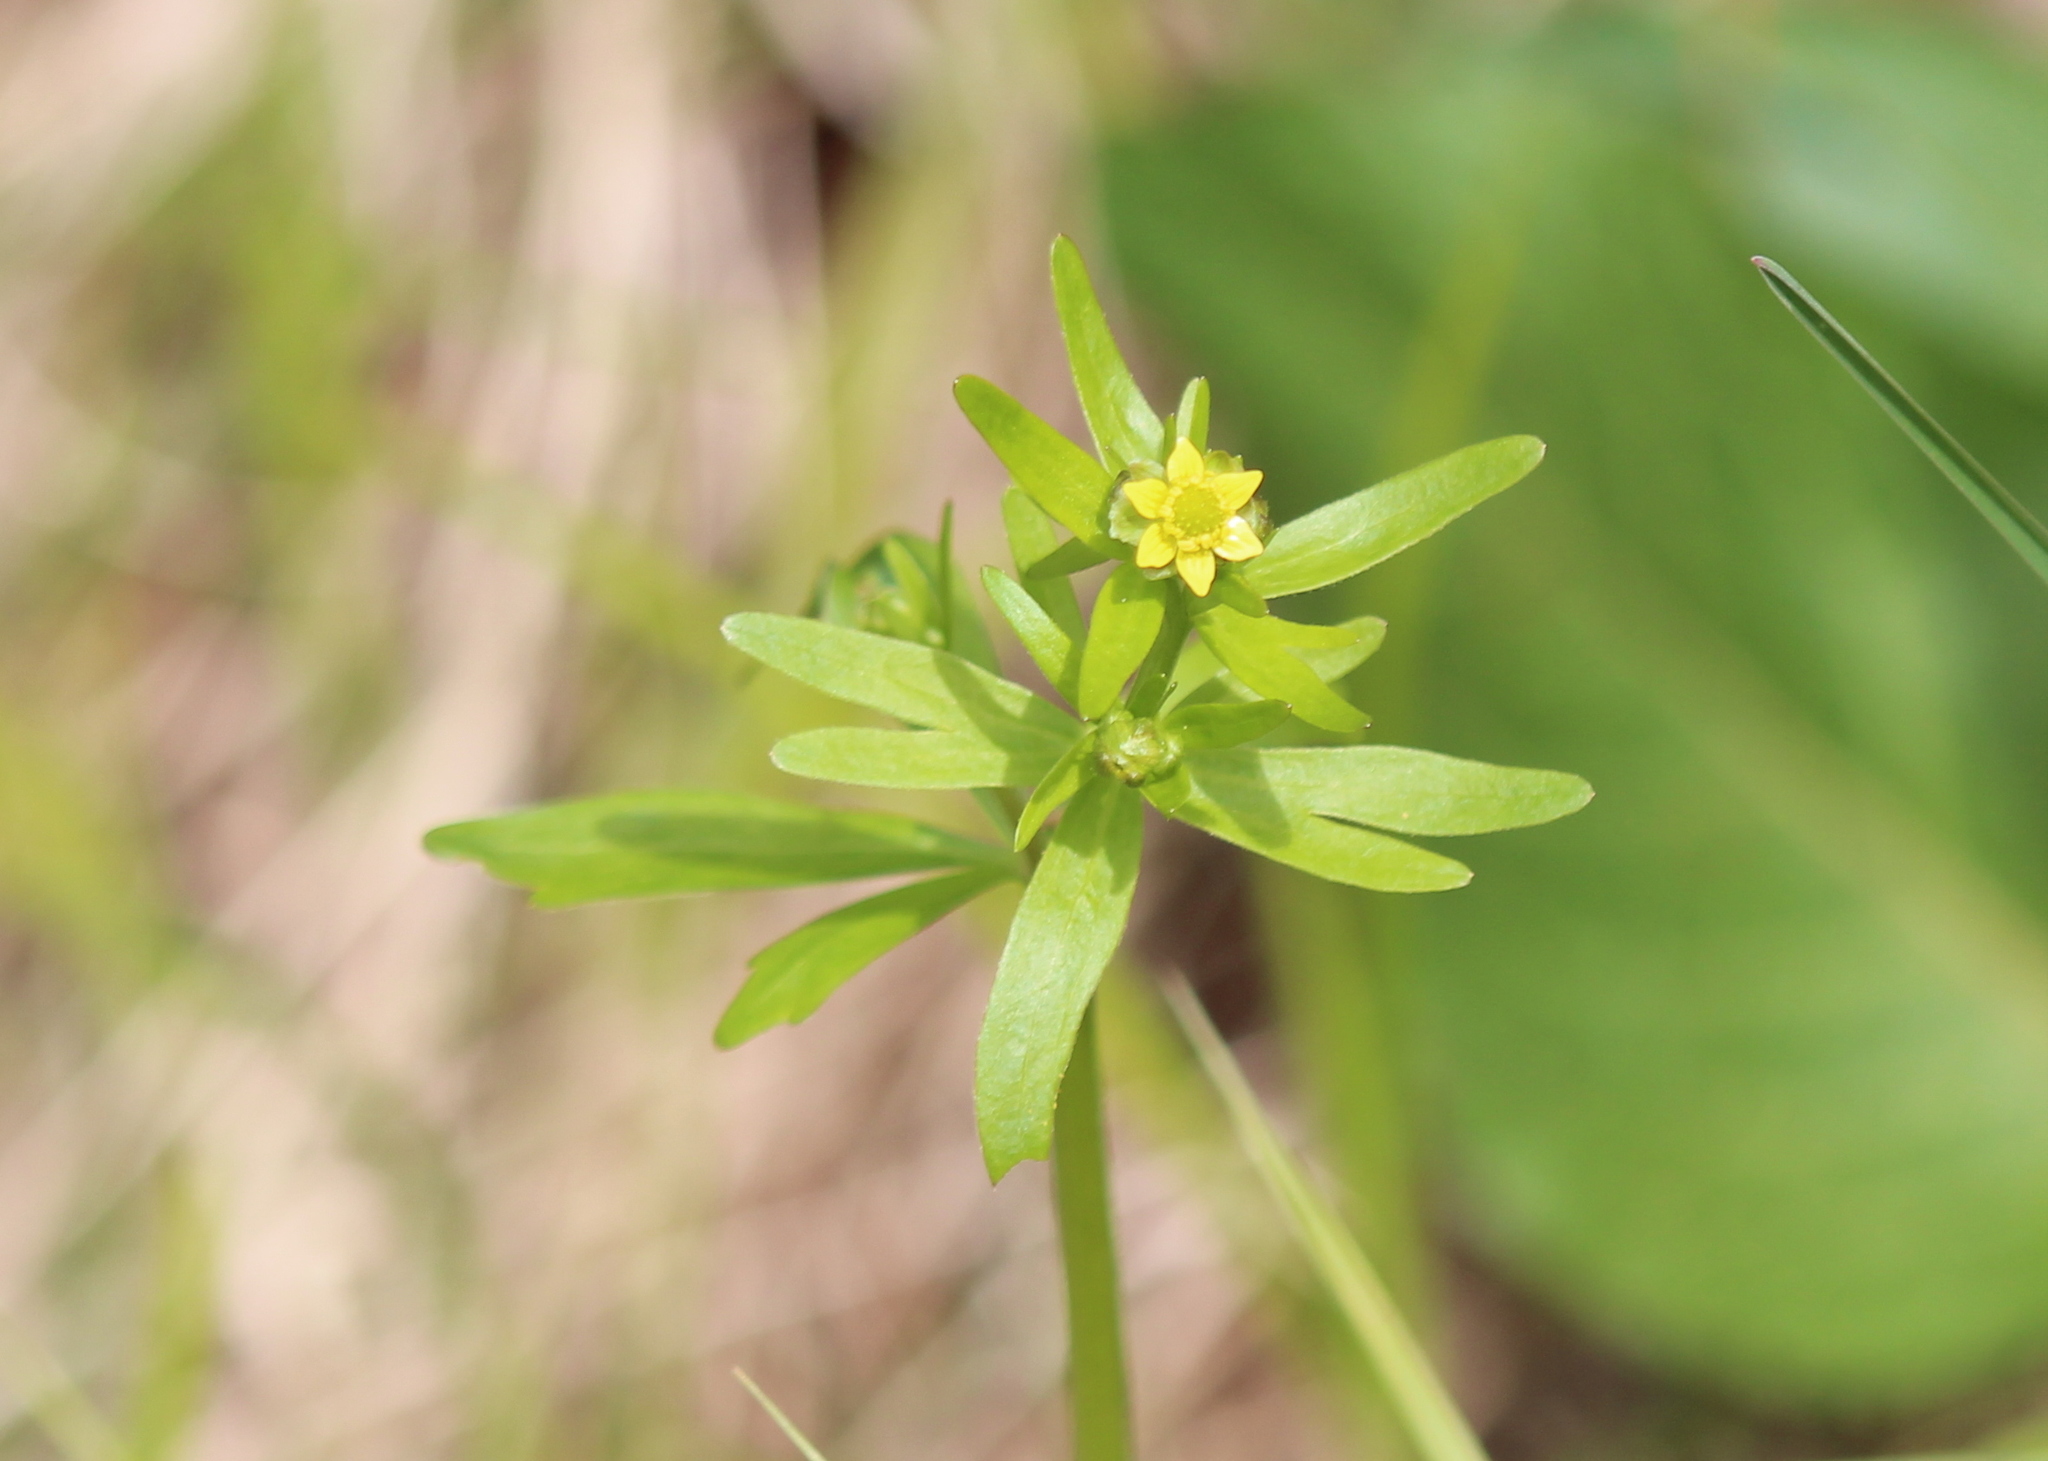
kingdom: Plantae
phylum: Tracheophyta
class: Magnoliopsida
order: Ranunculales
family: Ranunculaceae
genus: Ranunculus
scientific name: Ranunculus abortivus
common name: Early wood buttercup
